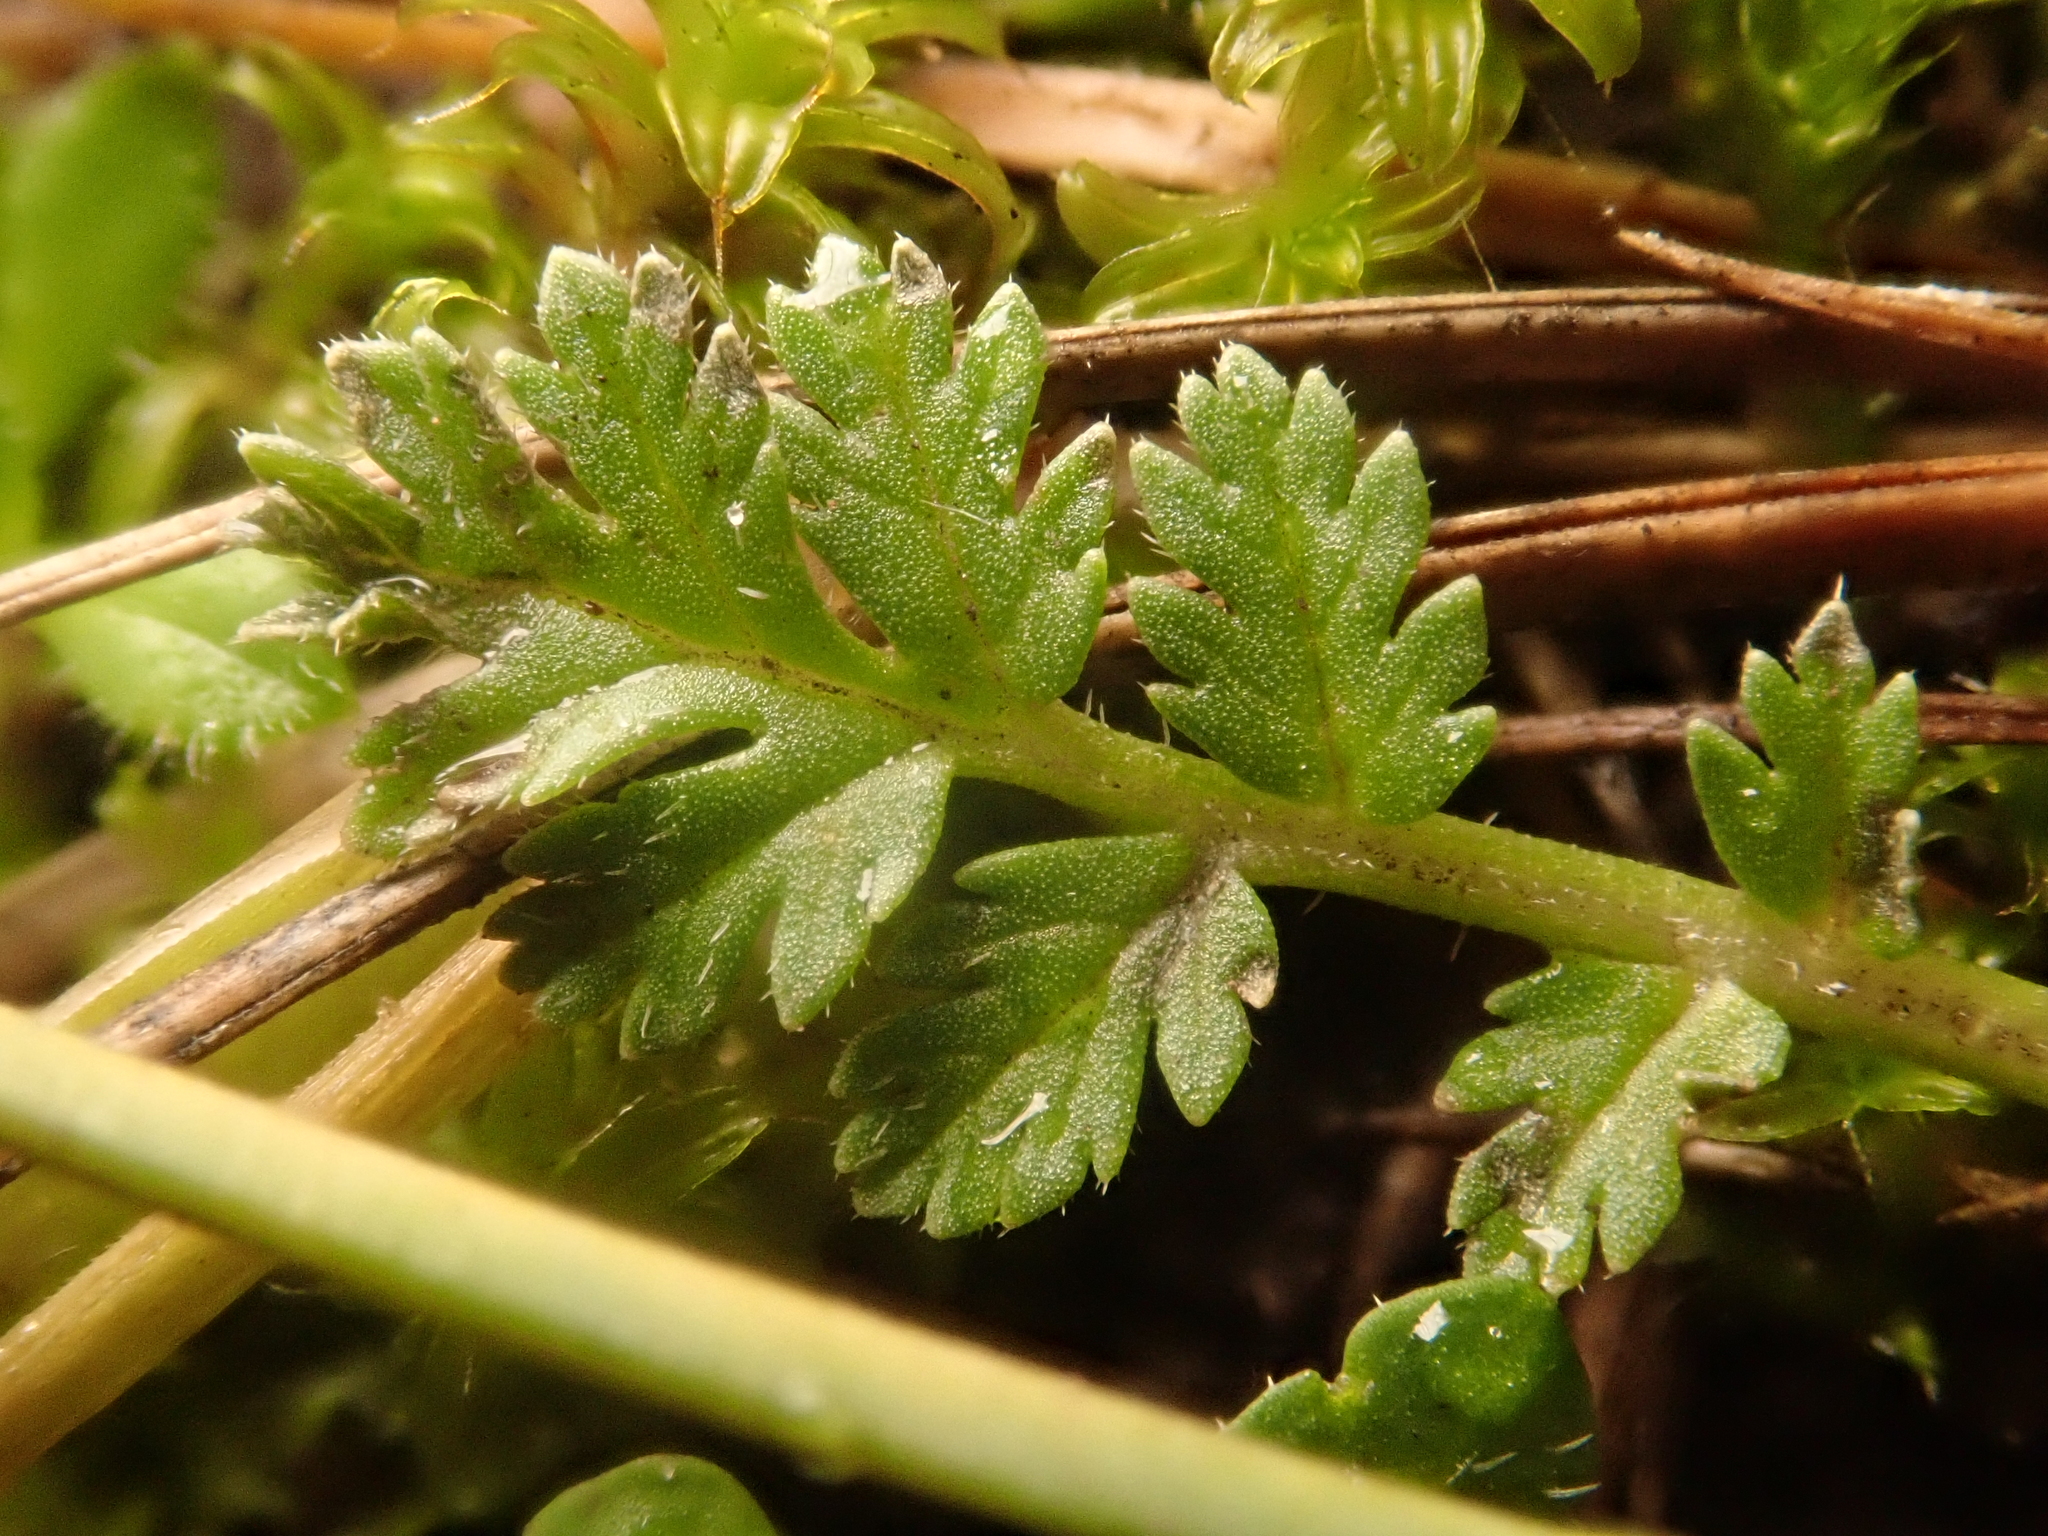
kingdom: Plantae
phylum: Tracheophyta
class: Magnoliopsida
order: Geraniales
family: Geraniaceae
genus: Erodium
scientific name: Erodium cicutarium
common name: Common stork's-bill
